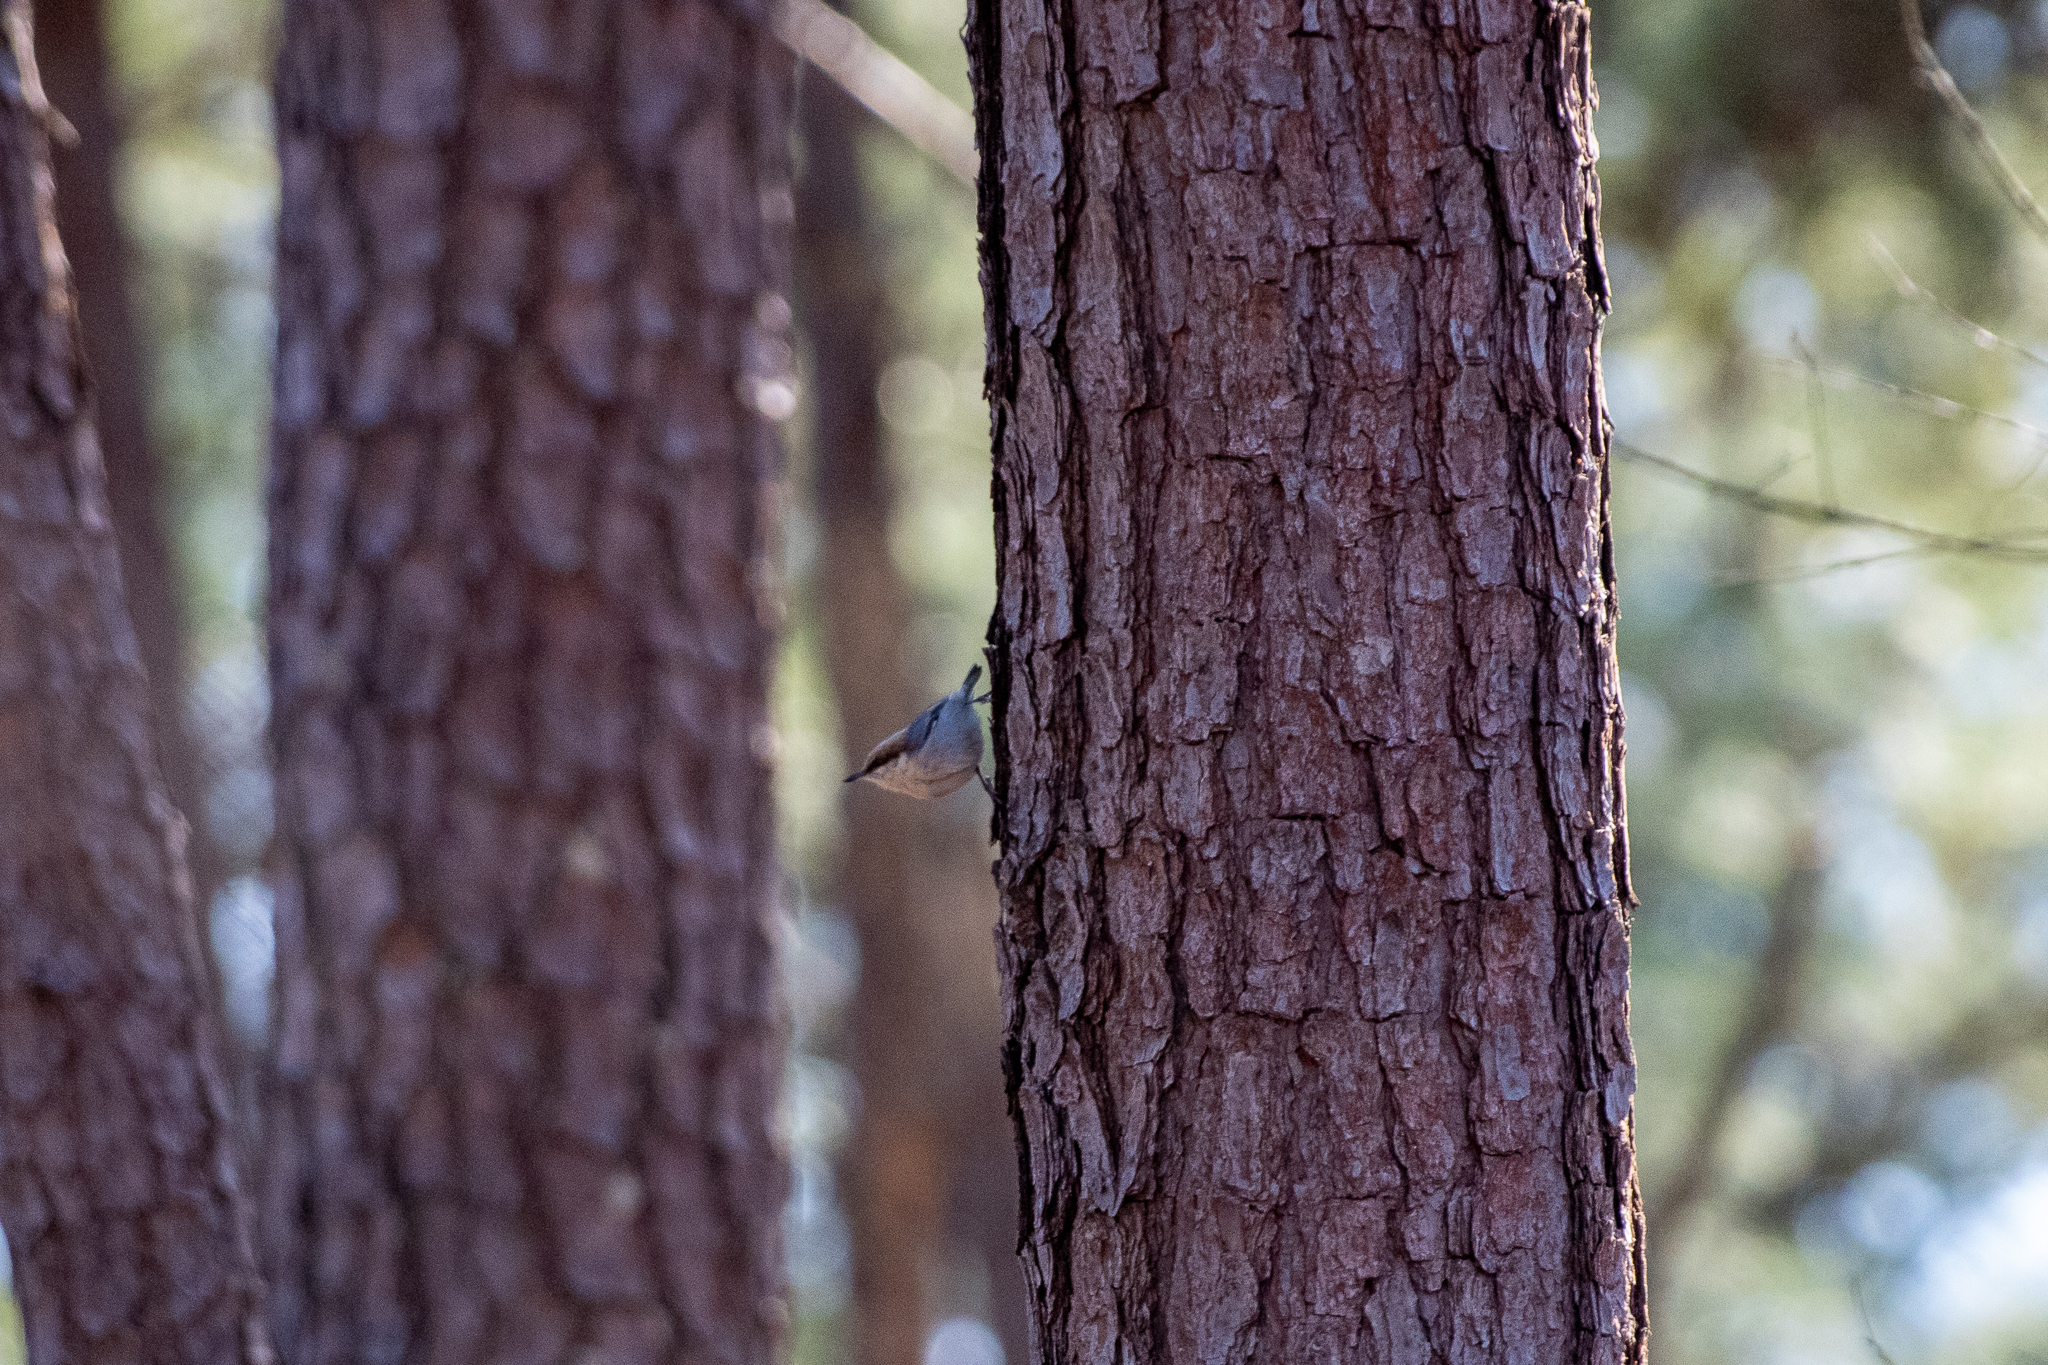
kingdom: Animalia
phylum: Chordata
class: Aves
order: Passeriformes
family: Sittidae
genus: Sitta
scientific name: Sitta pusilla
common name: Brown-headed nuthatch
